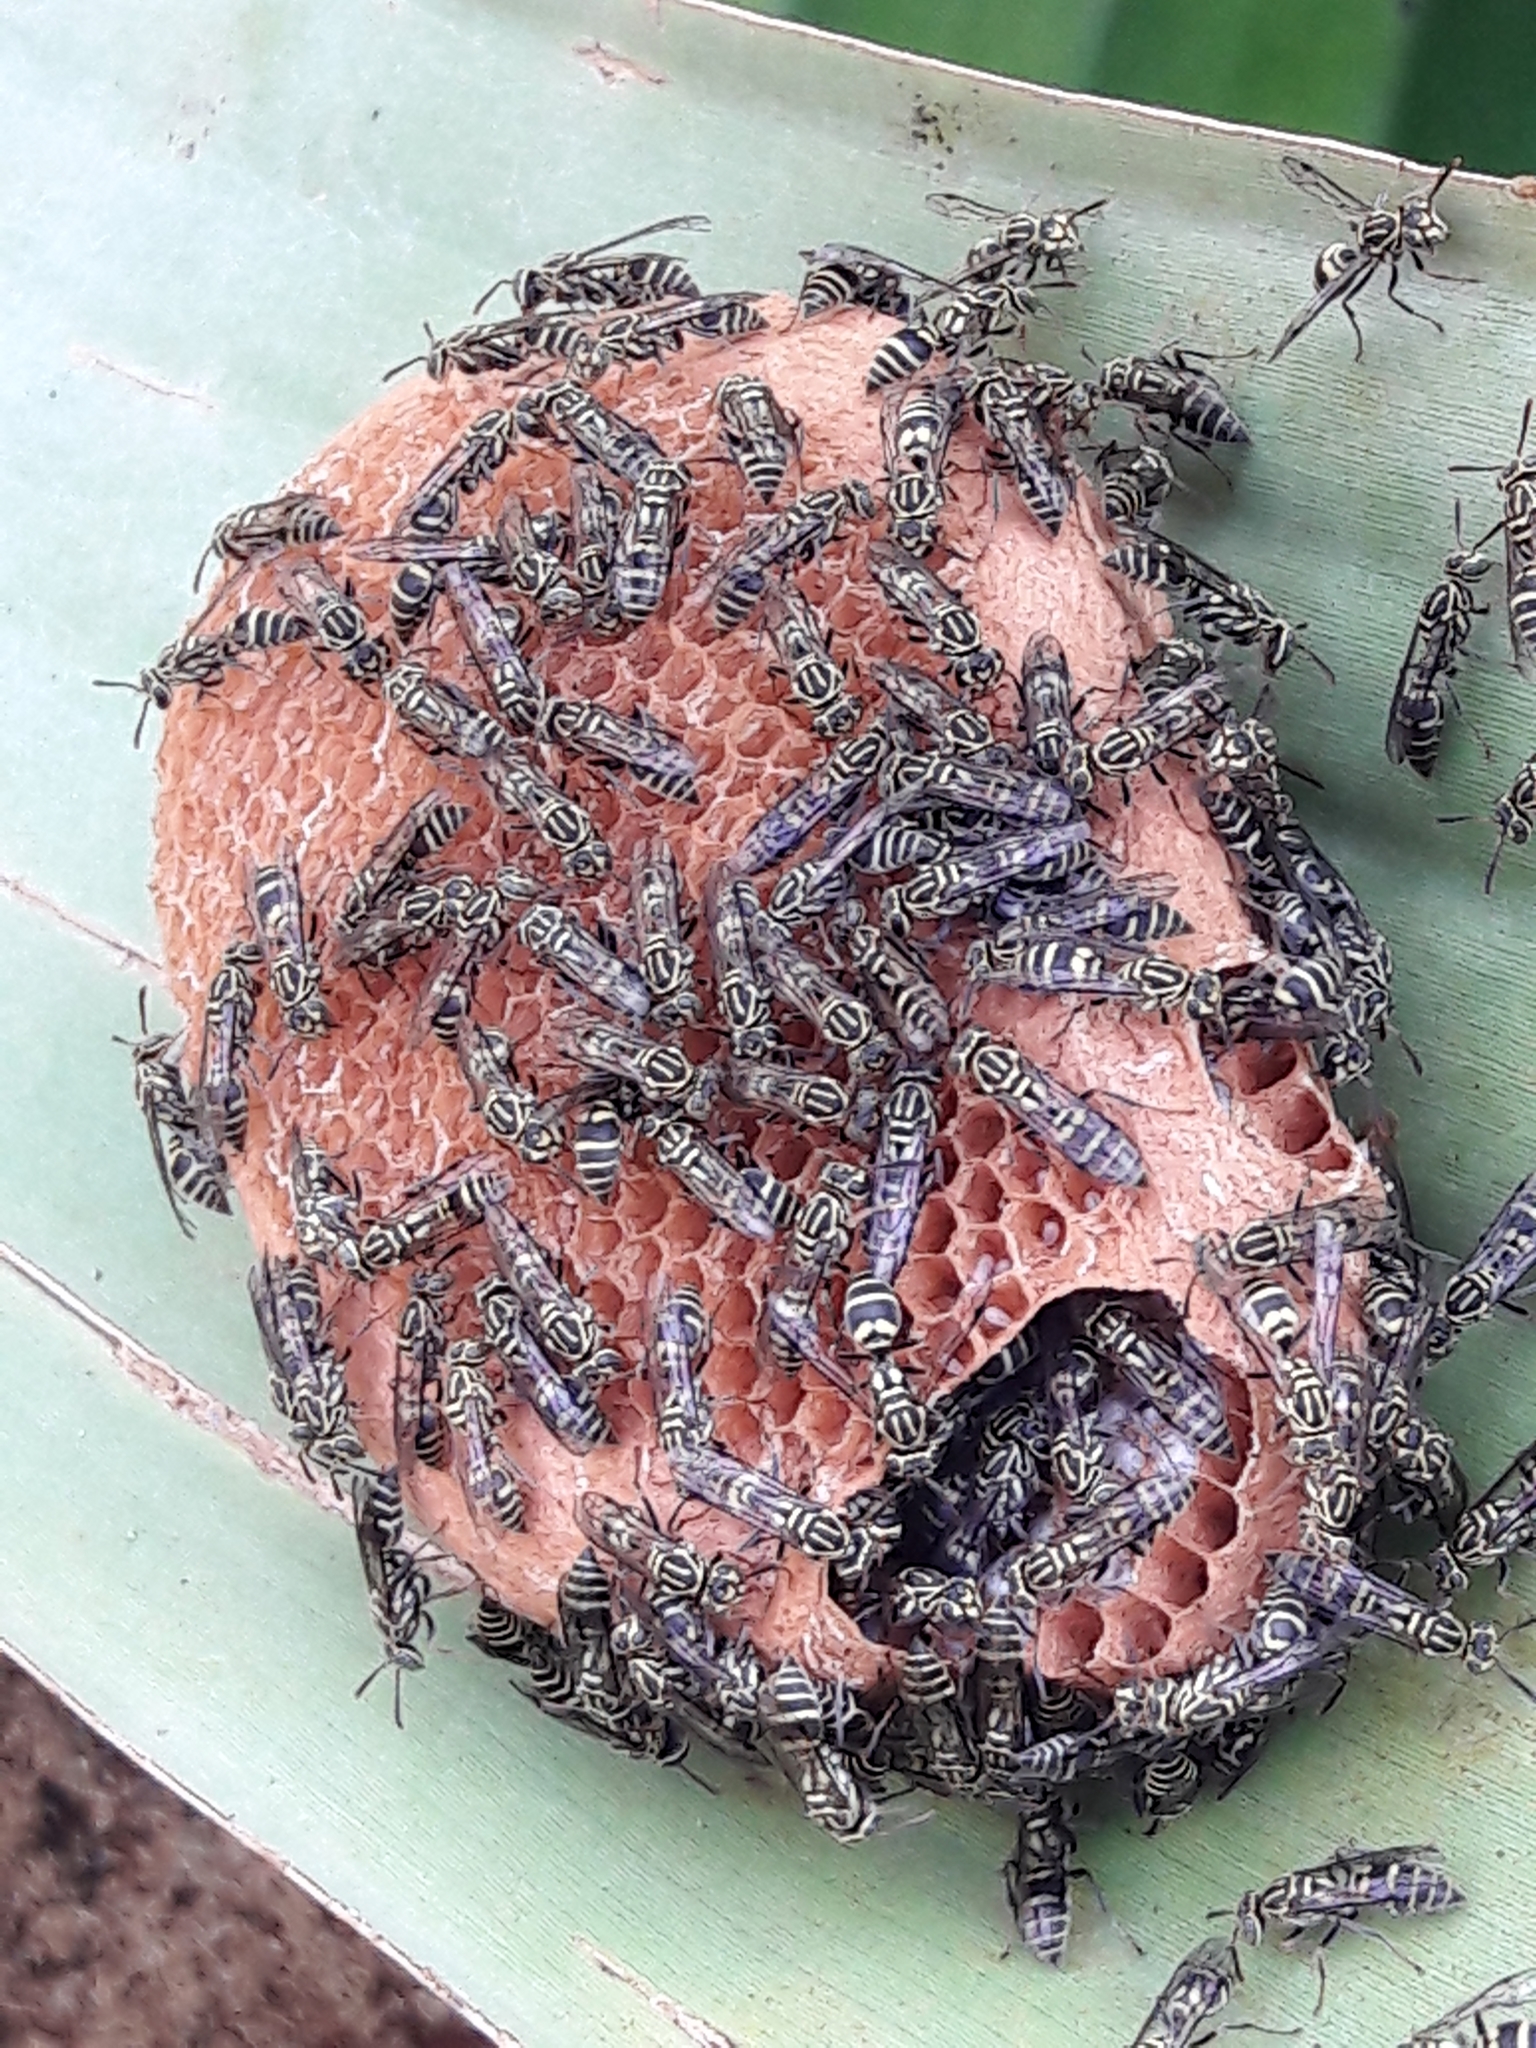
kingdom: Animalia
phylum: Arthropoda
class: Insecta
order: Hymenoptera
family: Vespidae
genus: Protopolybia
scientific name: Protopolybia exigua
